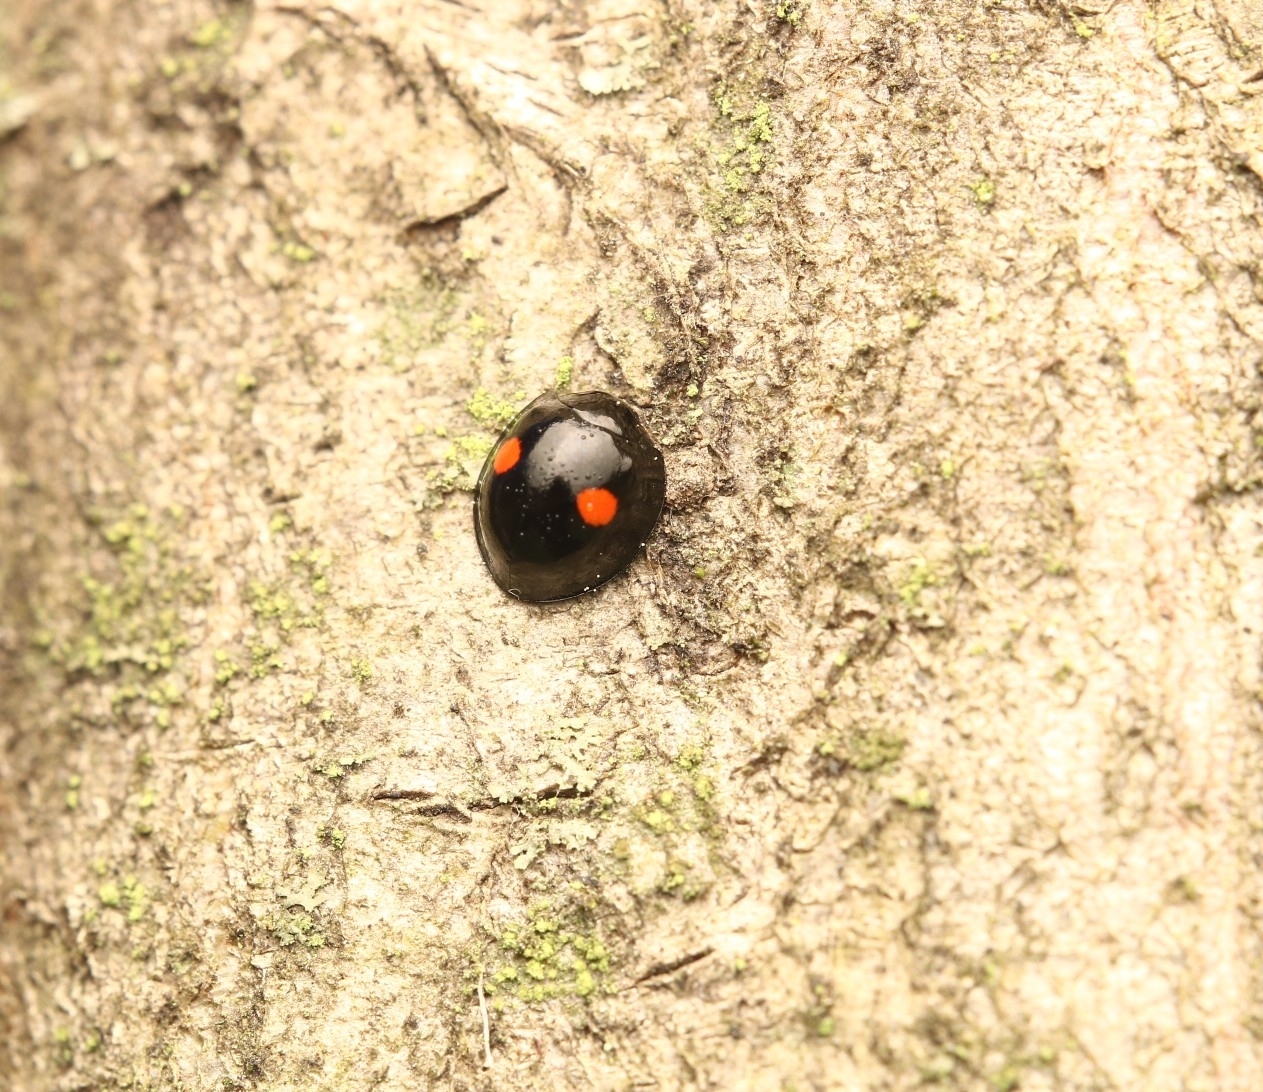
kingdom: Animalia
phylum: Arthropoda
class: Insecta
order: Coleoptera
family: Coccinellidae
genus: Chilocorus
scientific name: Chilocorus stigma
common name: Twicestabbed lady beetle
